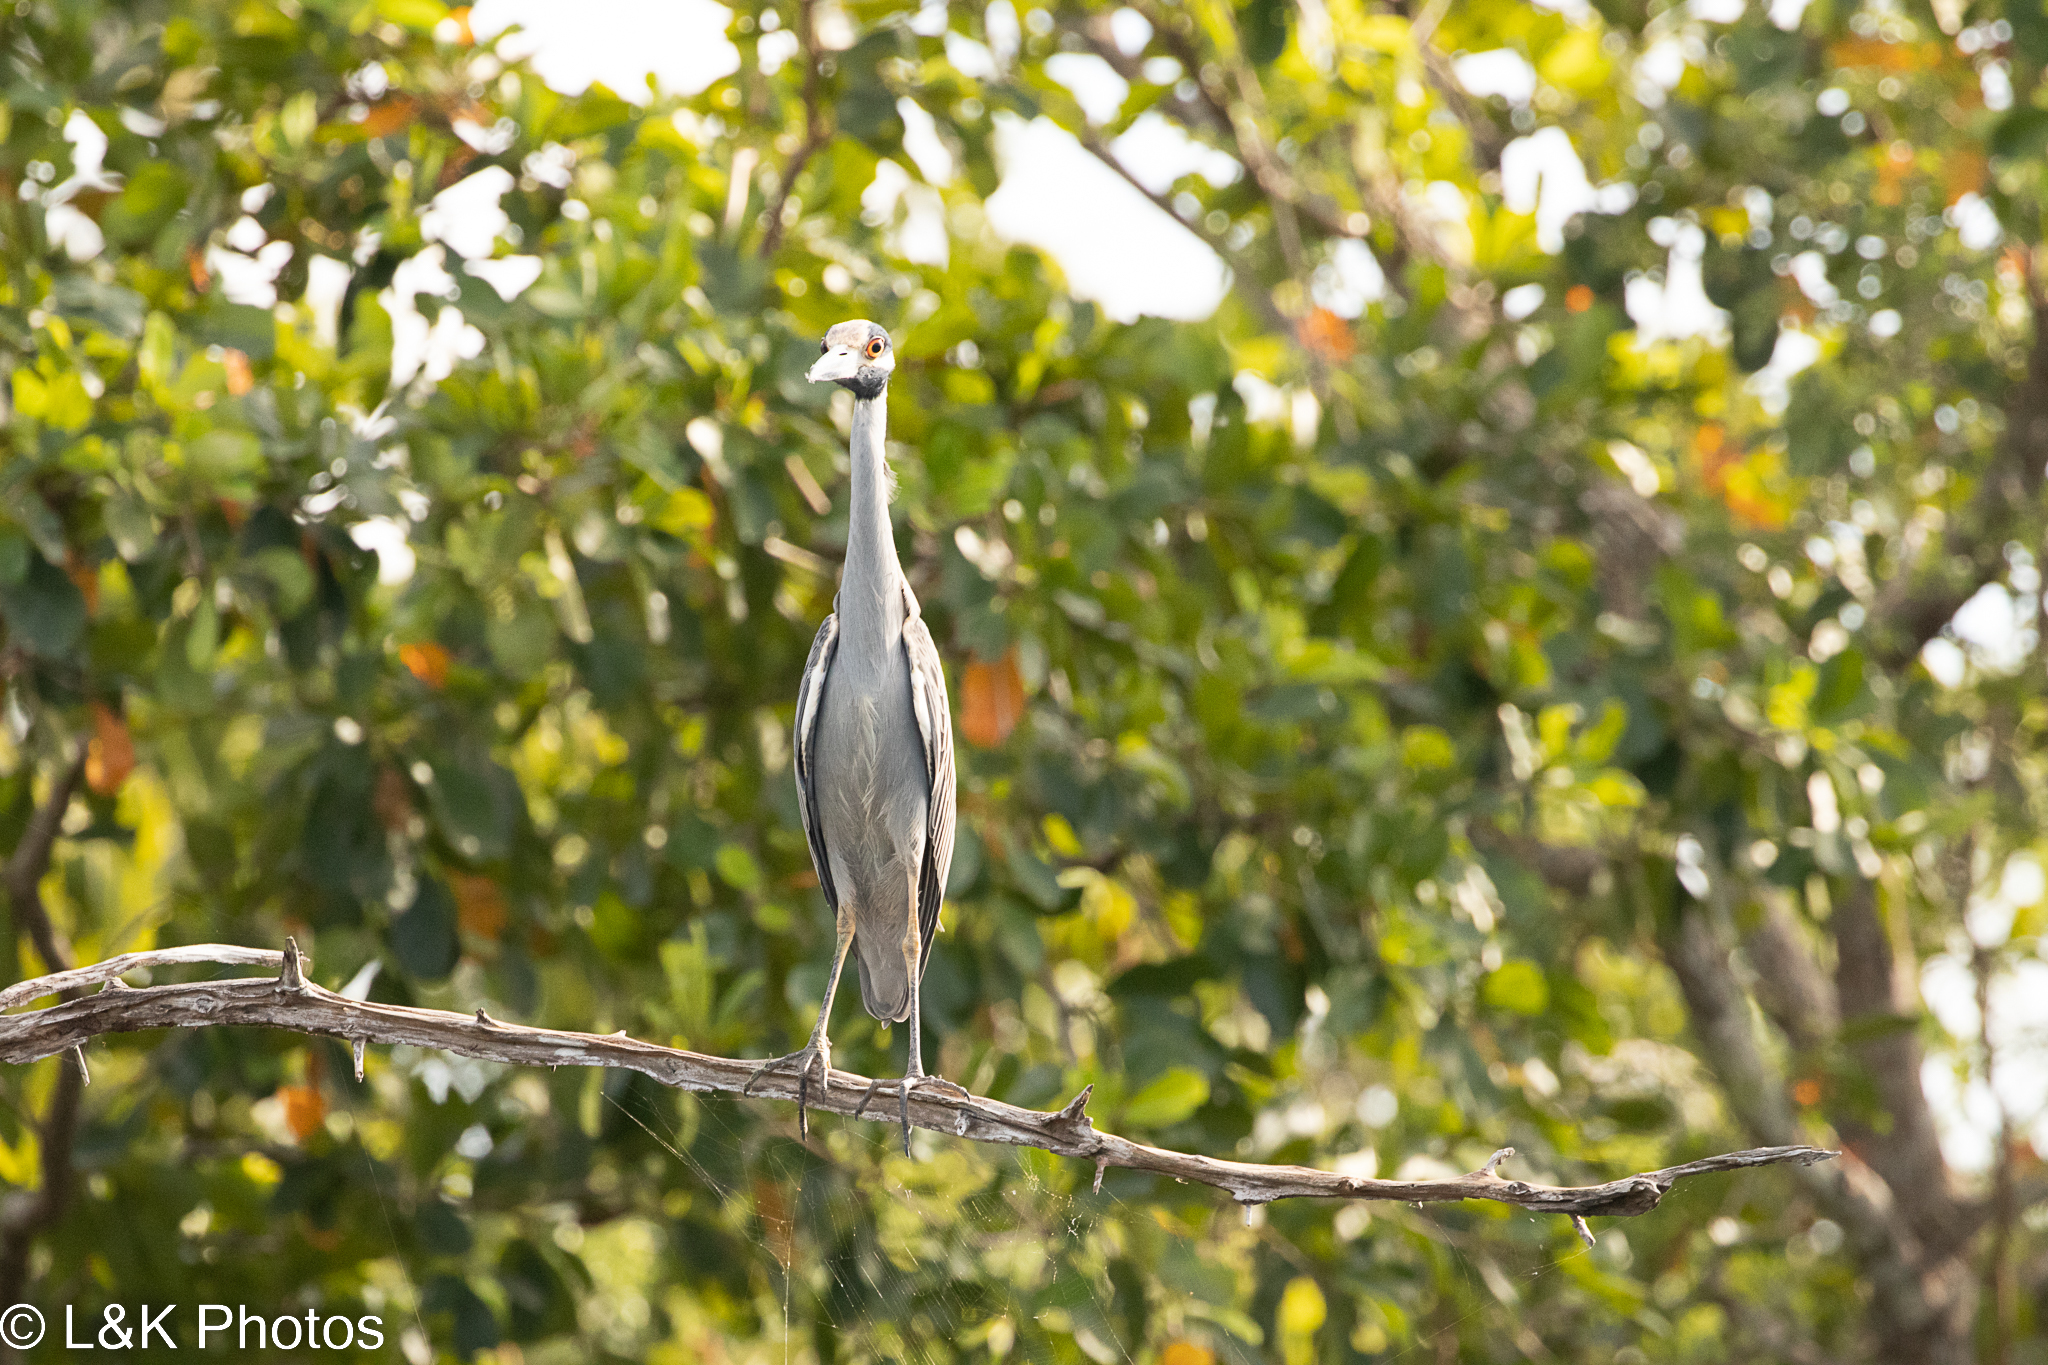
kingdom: Animalia
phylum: Chordata
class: Aves
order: Pelecaniformes
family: Ardeidae
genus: Nyctanassa
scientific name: Nyctanassa violacea
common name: Yellow-crowned night heron
